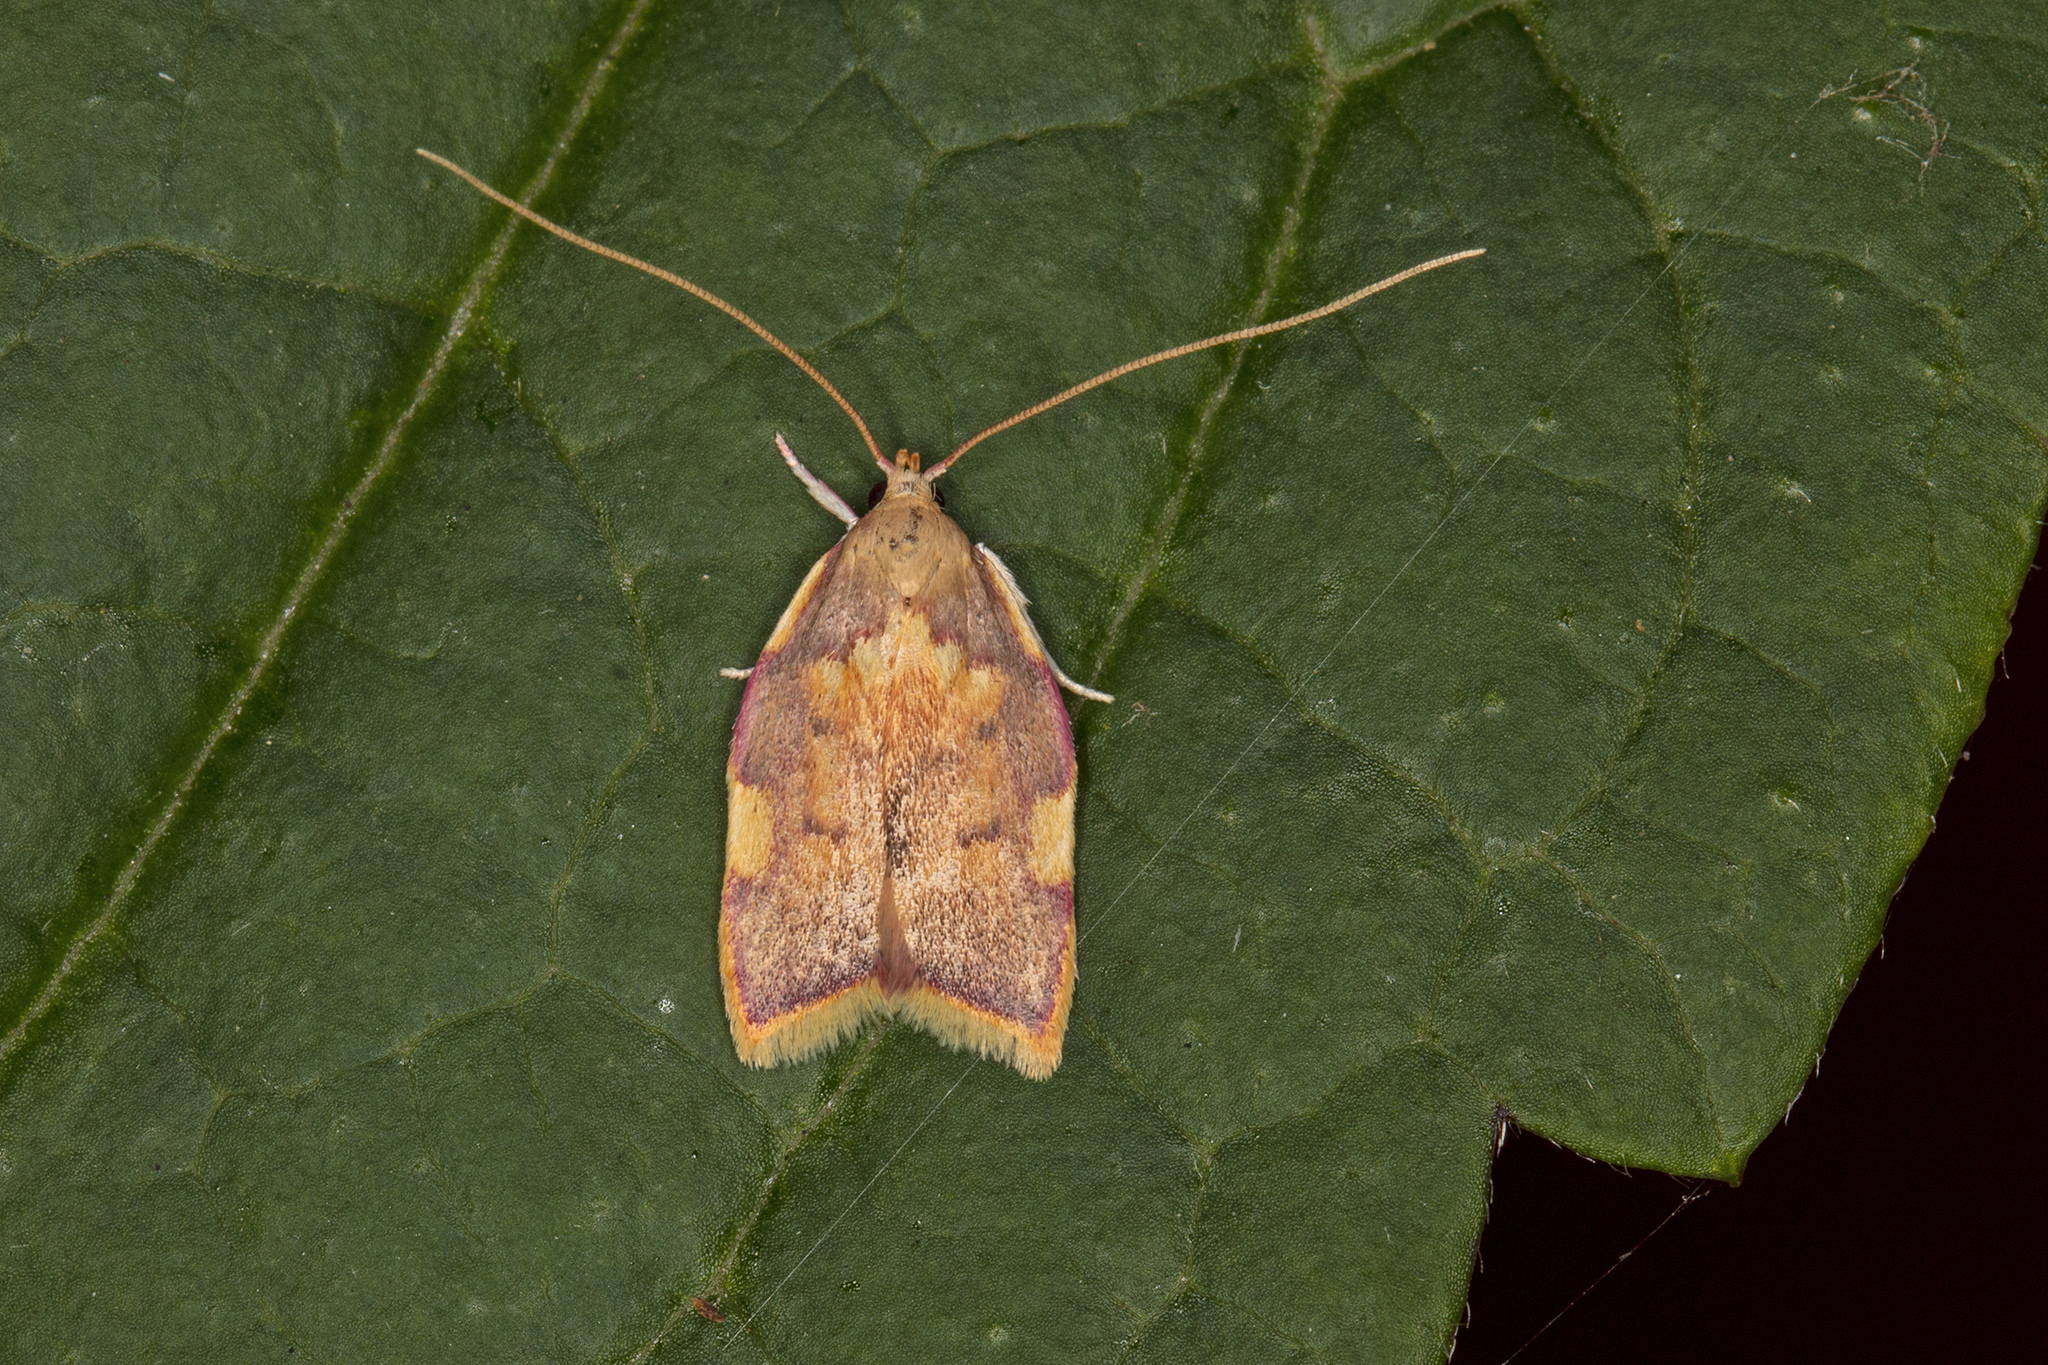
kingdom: Animalia
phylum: Arthropoda
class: Insecta
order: Lepidoptera
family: Peleopodidae
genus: Carcina
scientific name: Carcina quercana
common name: Moth
